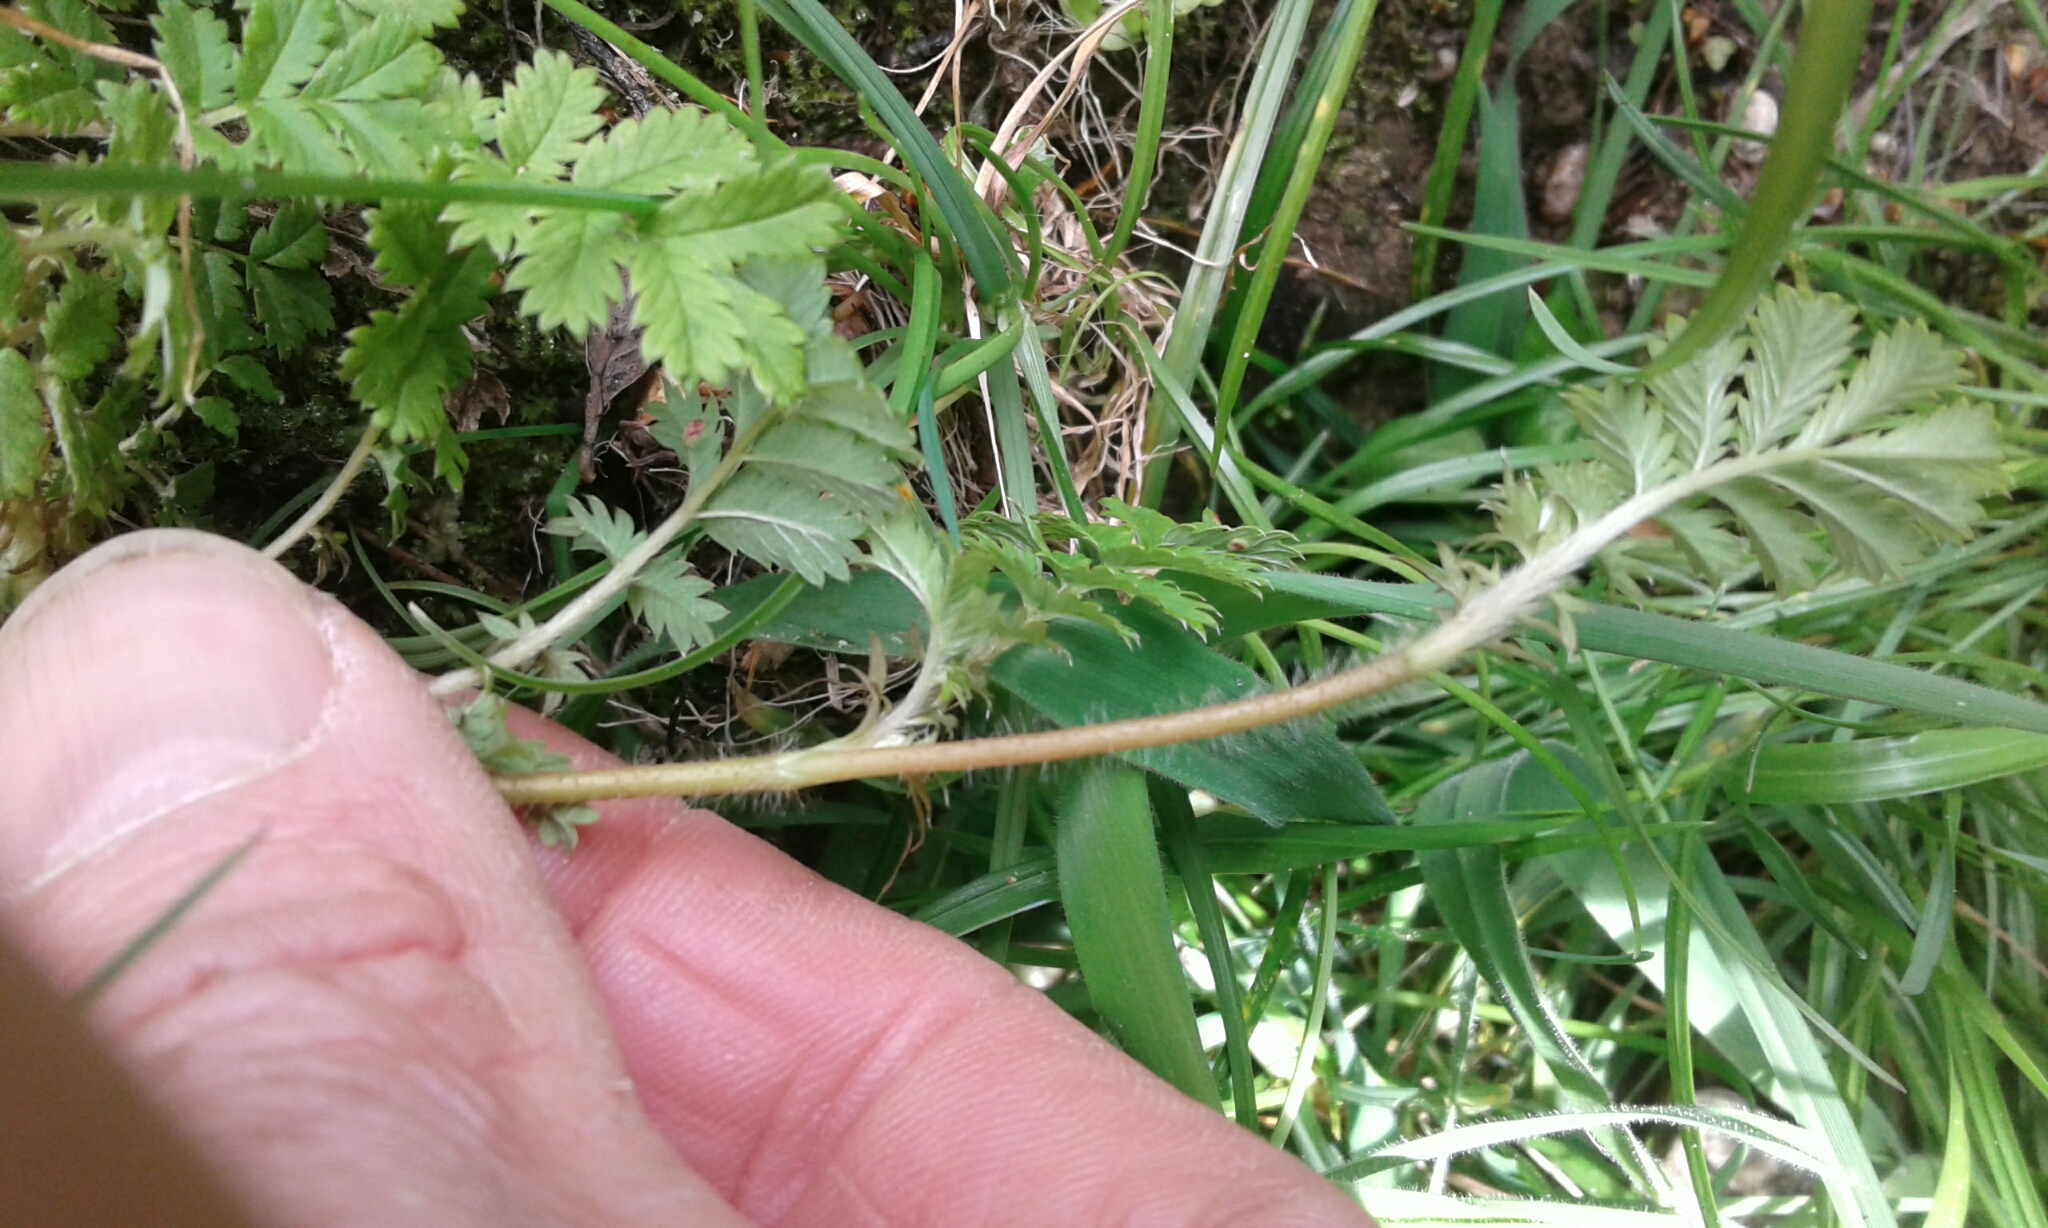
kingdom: Plantae
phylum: Tracheophyta
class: Magnoliopsida
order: Rosales
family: Rosaceae
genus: Acaena
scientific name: Acaena anserinifolia
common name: Bronze pirri-pirri-bur
